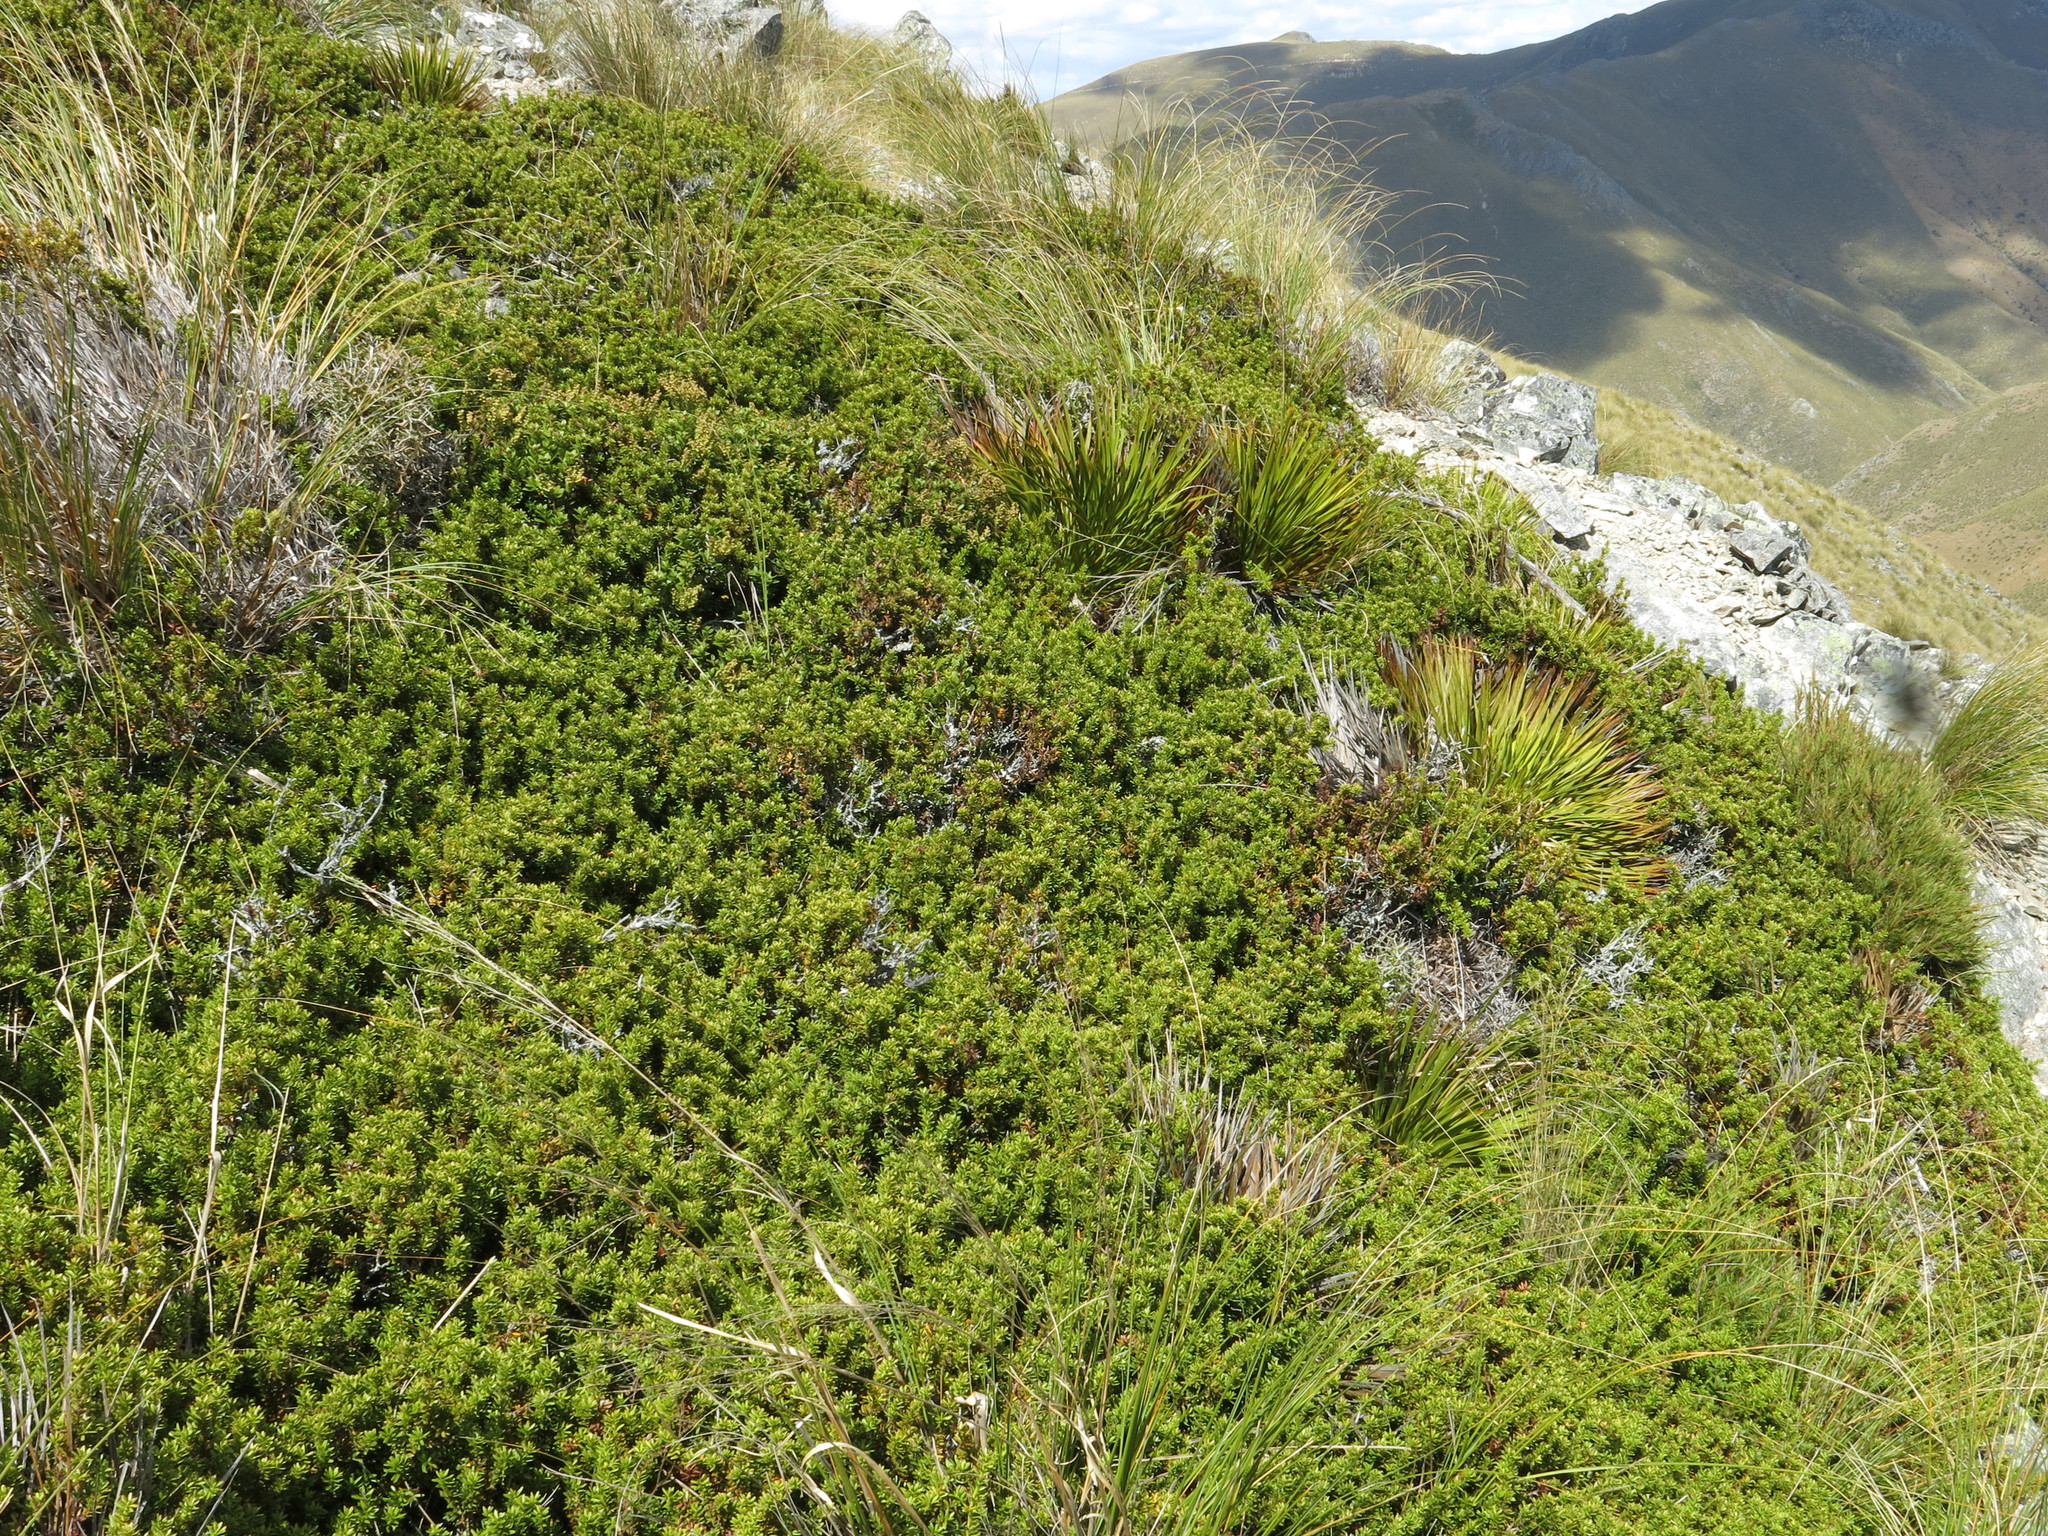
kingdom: Plantae
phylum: Tracheophyta
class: Pinopsida
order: Pinales
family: Podocarpaceae
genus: Podocarpus
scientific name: Podocarpus nivalis
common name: Alpine totara
